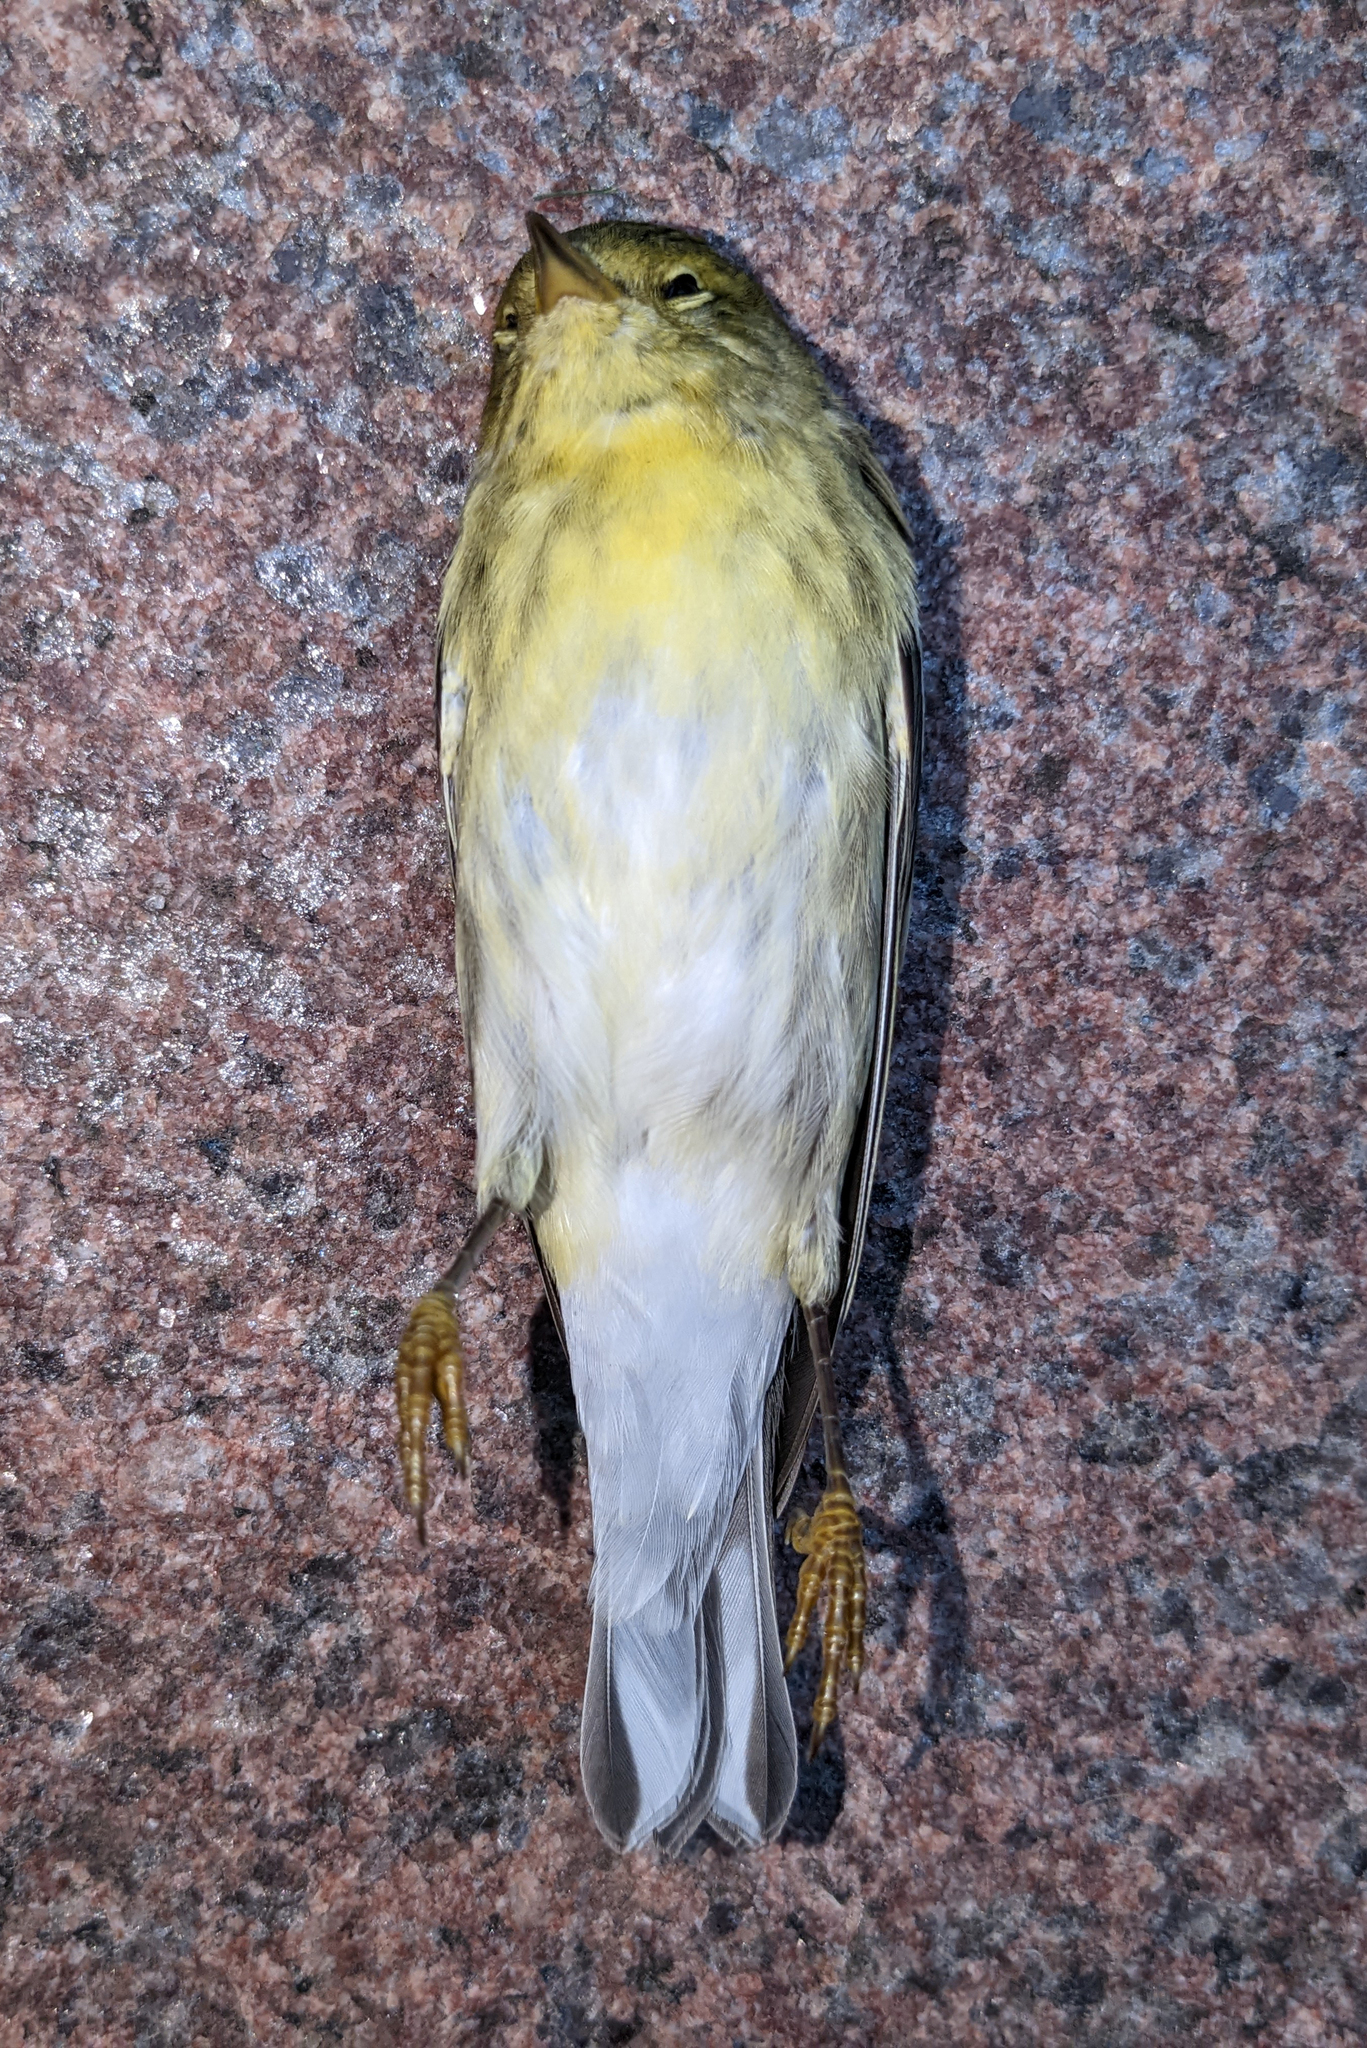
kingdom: Animalia
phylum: Chordata
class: Aves
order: Passeriformes
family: Parulidae
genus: Setophaga
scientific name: Setophaga striata
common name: Blackpoll warbler
